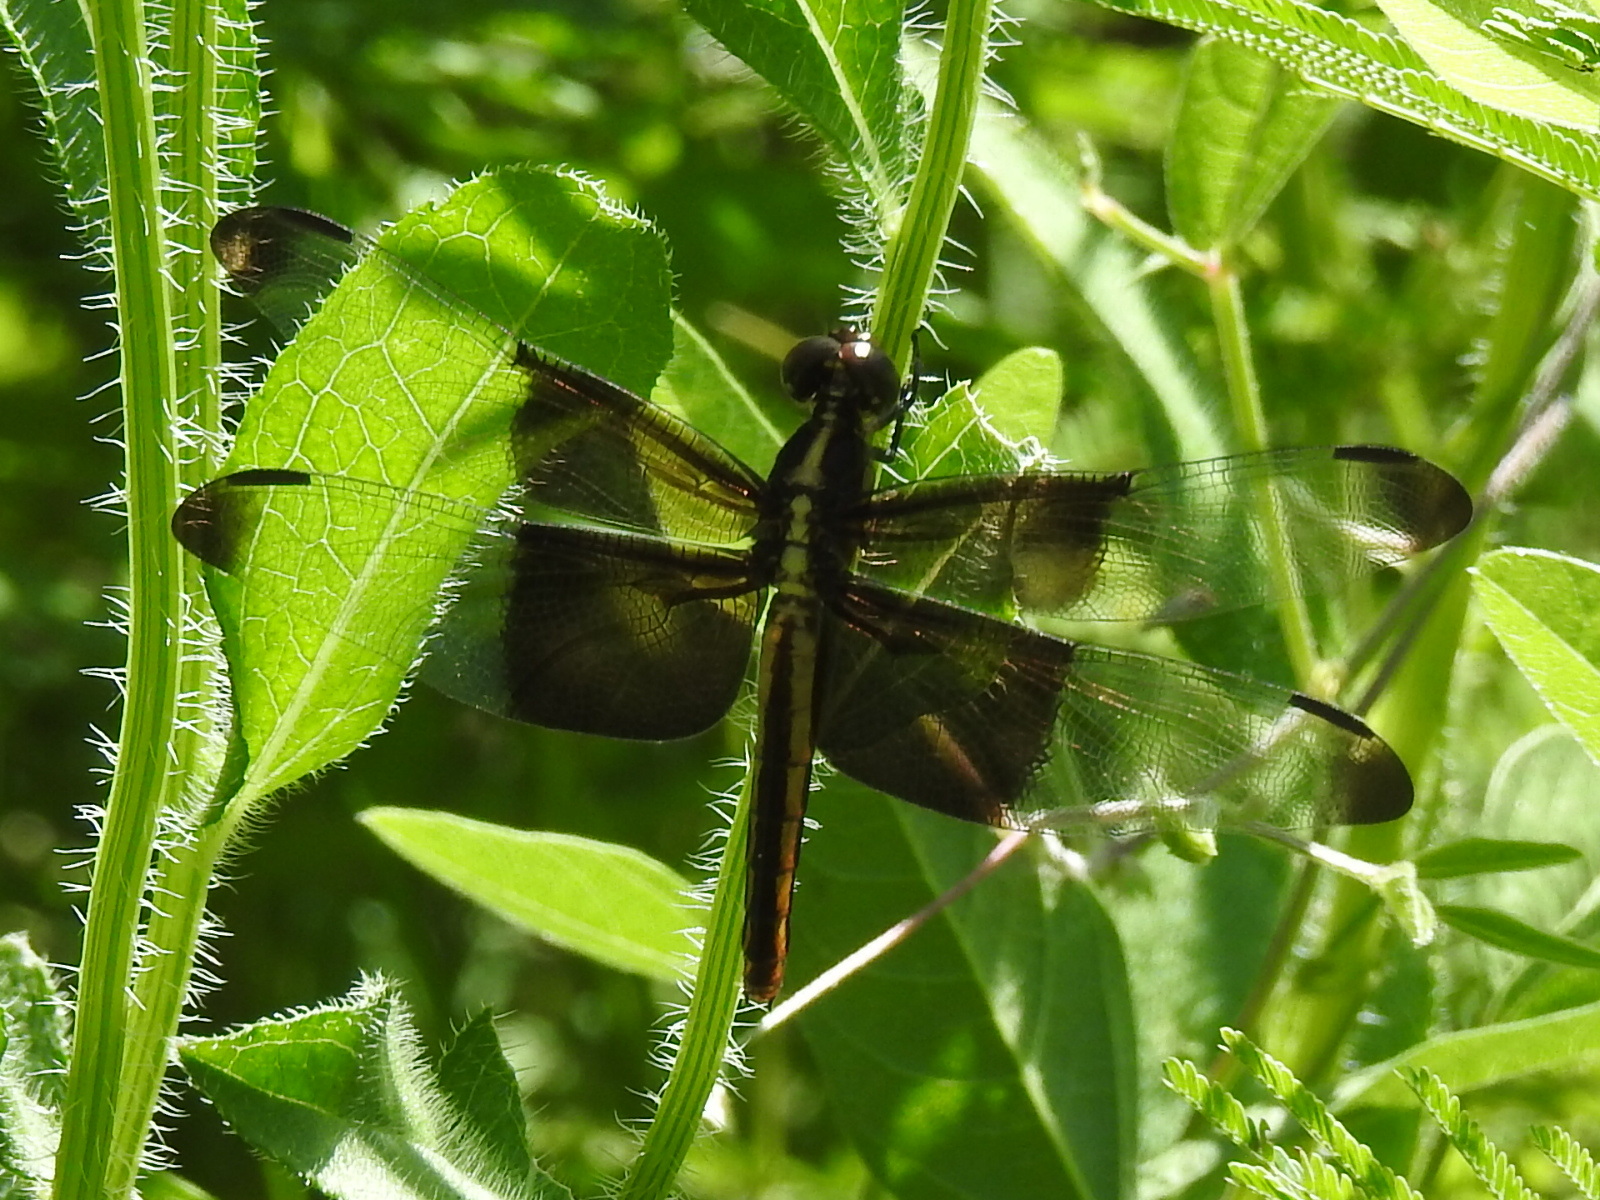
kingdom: Animalia
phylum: Arthropoda
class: Insecta
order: Odonata
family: Libellulidae
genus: Libellula
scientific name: Libellula luctuosa
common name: Widow skimmer
